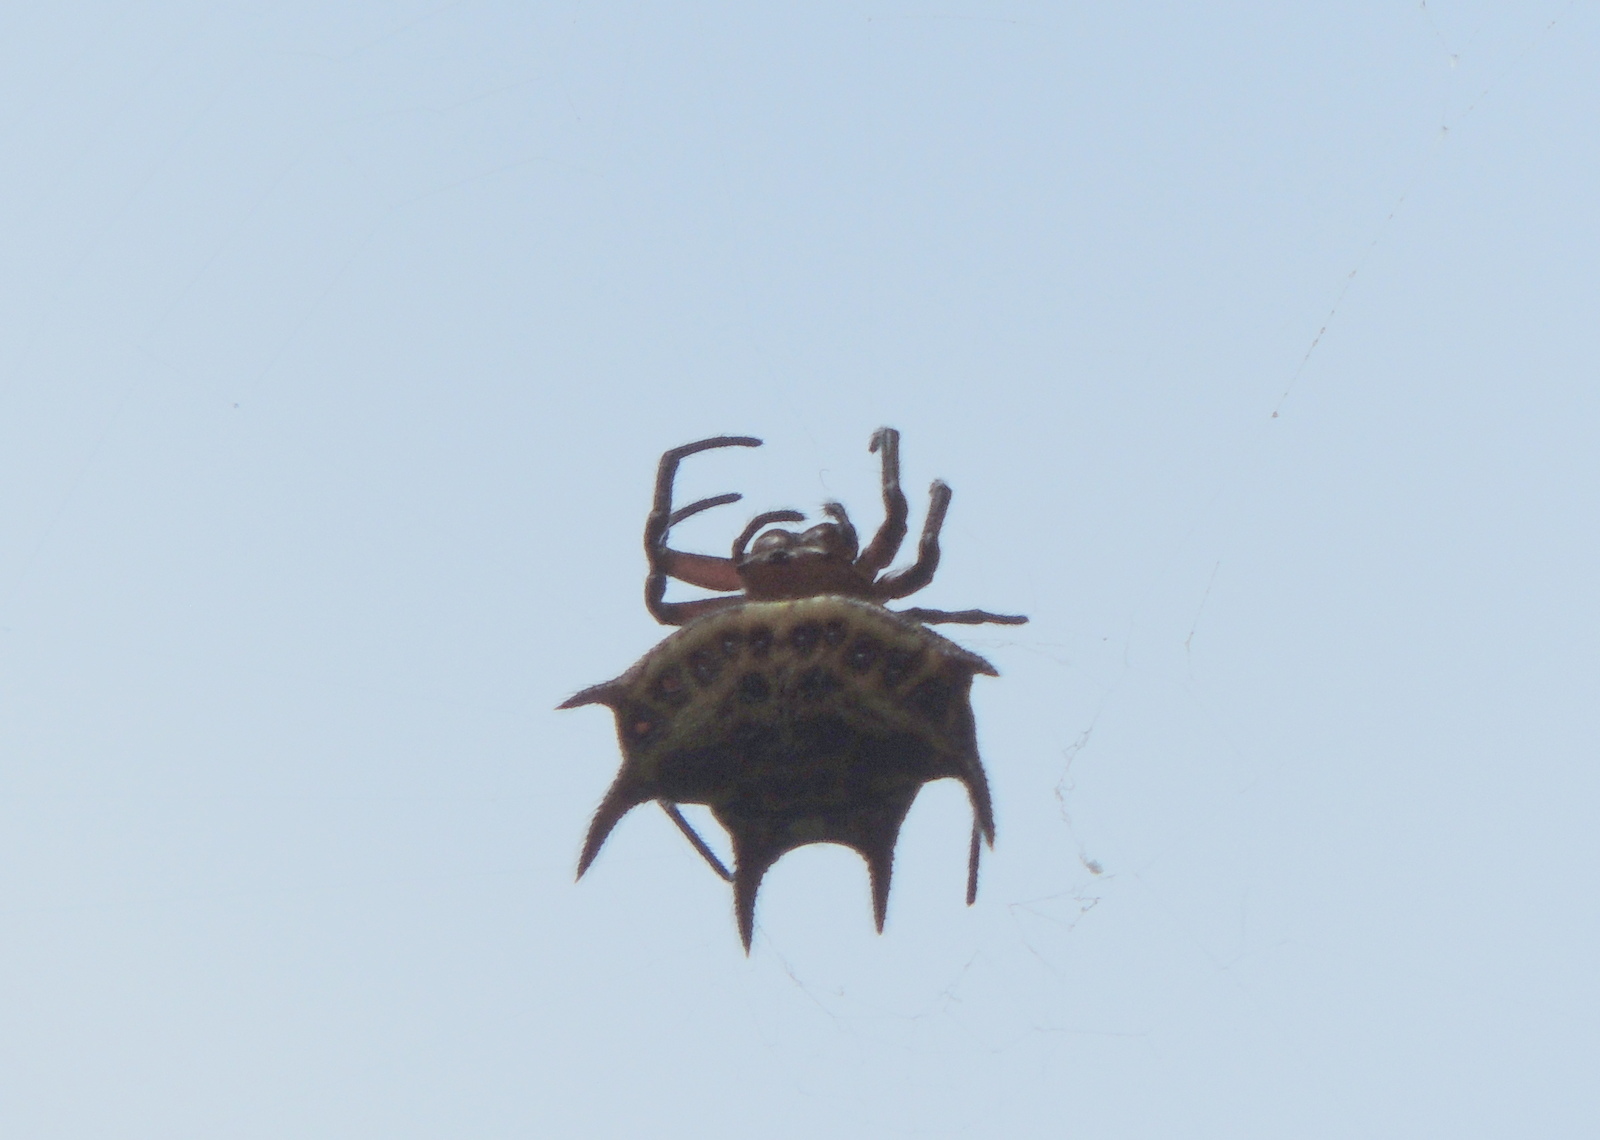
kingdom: Animalia
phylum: Arthropoda
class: Arachnida
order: Araneae
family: Araneidae
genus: Gasteracantha
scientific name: Gasteracantha curvispina
